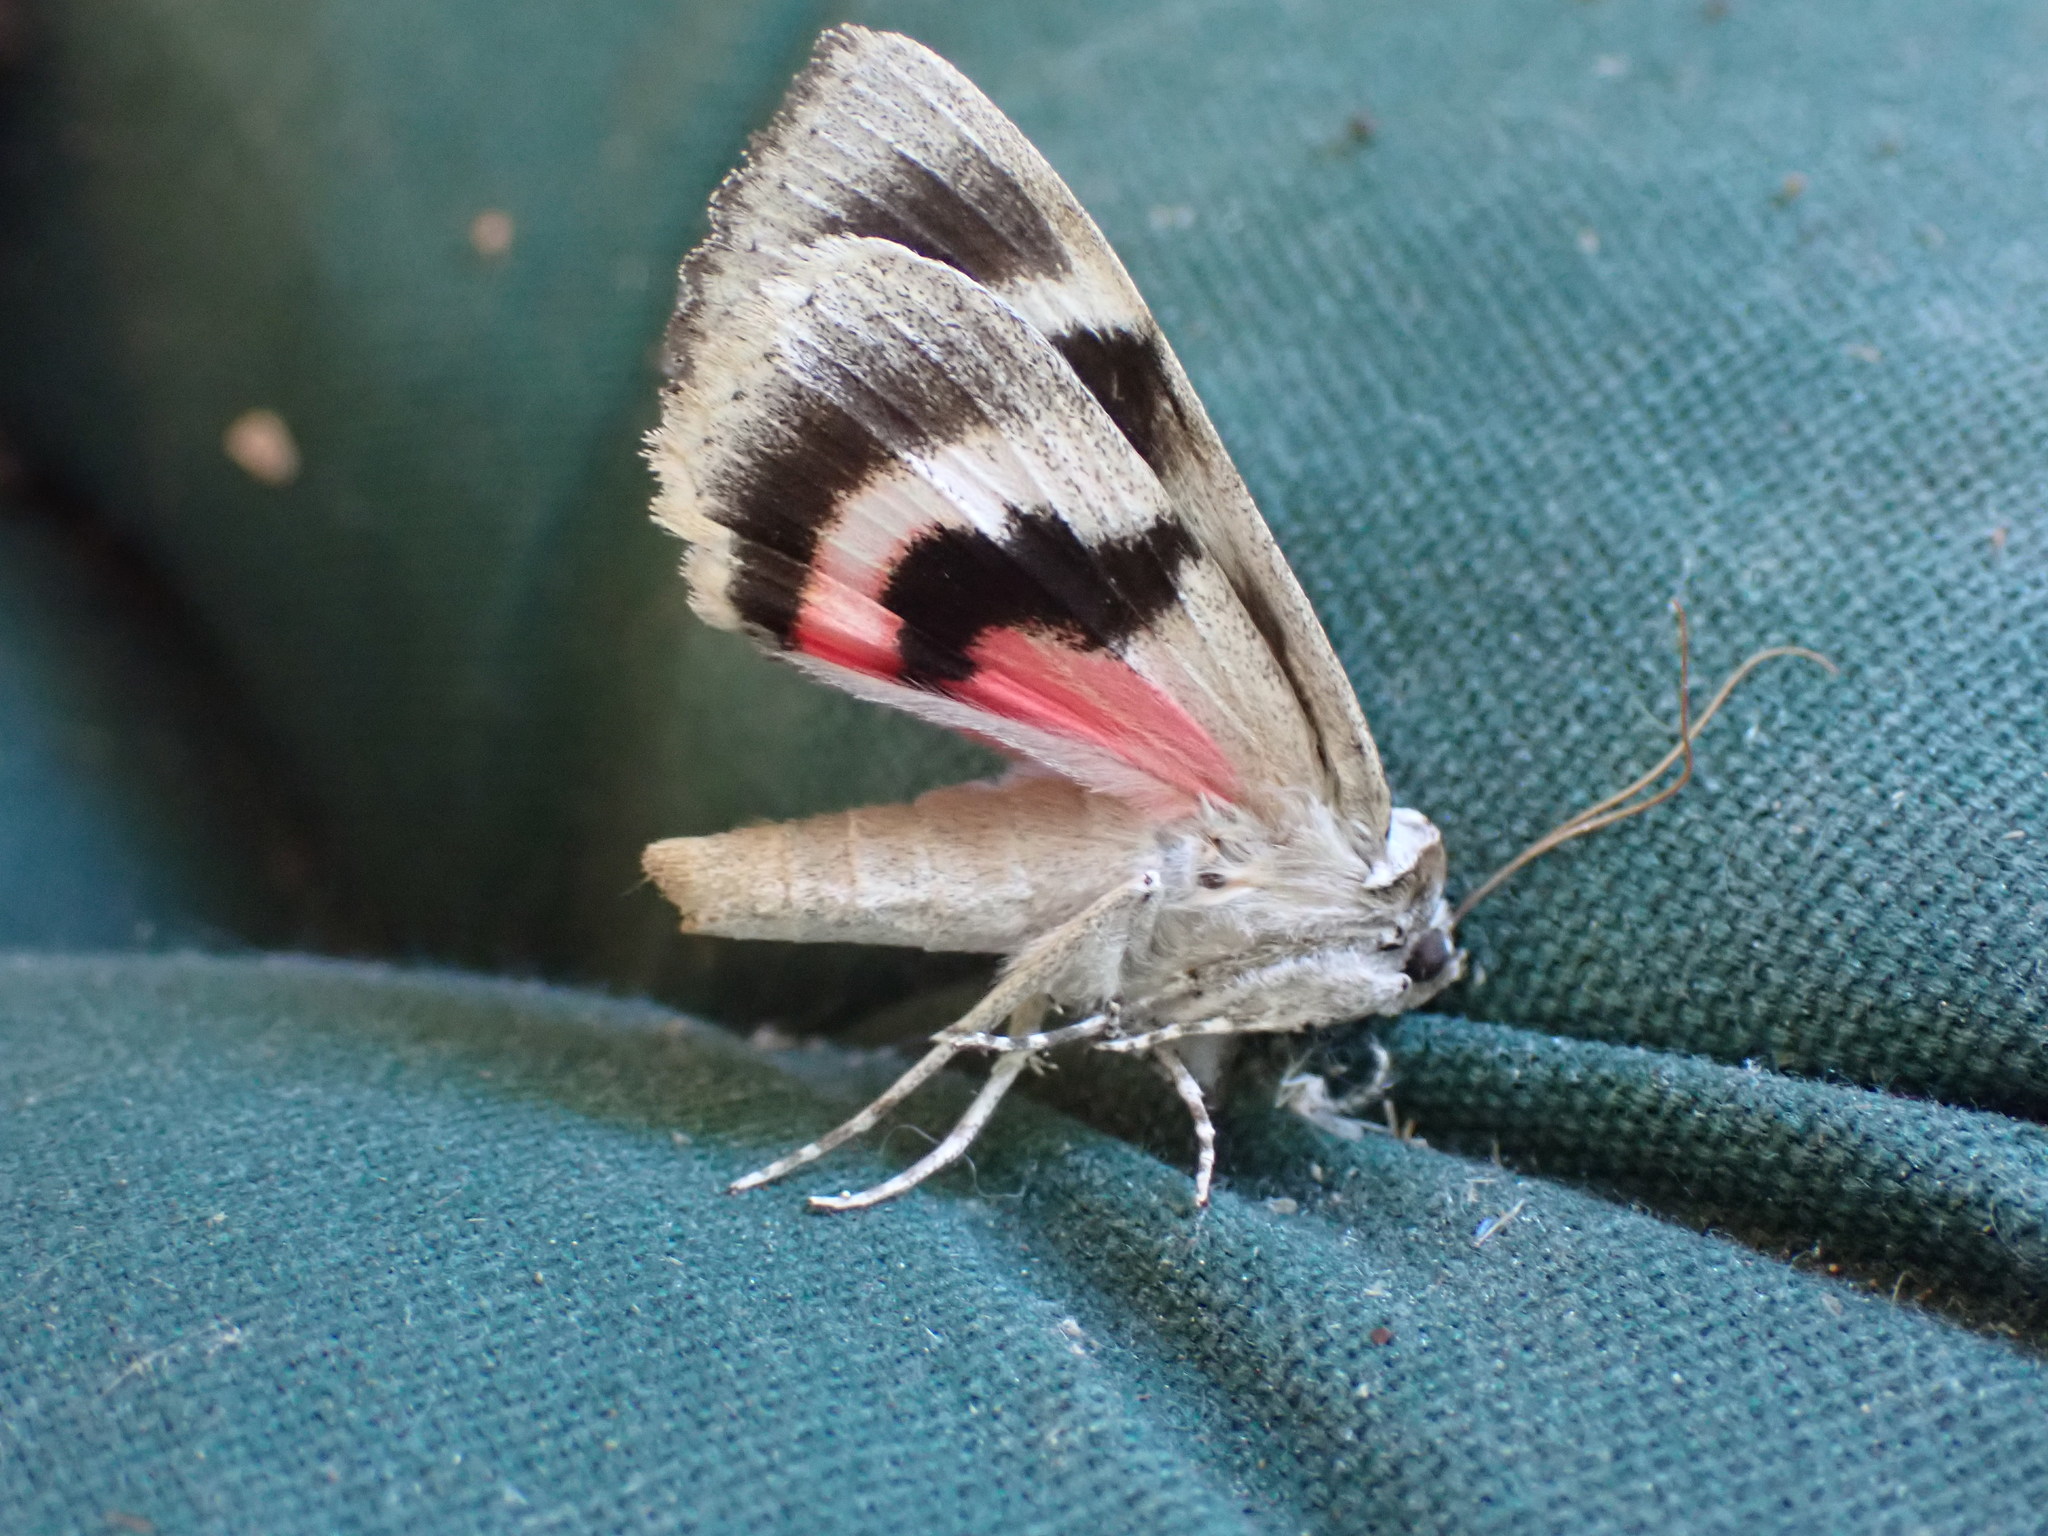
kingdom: Animalia
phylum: Arthropoda
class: Insecta
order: Lepidoptera
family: Erebidae
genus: Catocala
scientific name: Catocala concumbens
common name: Pink underwing
